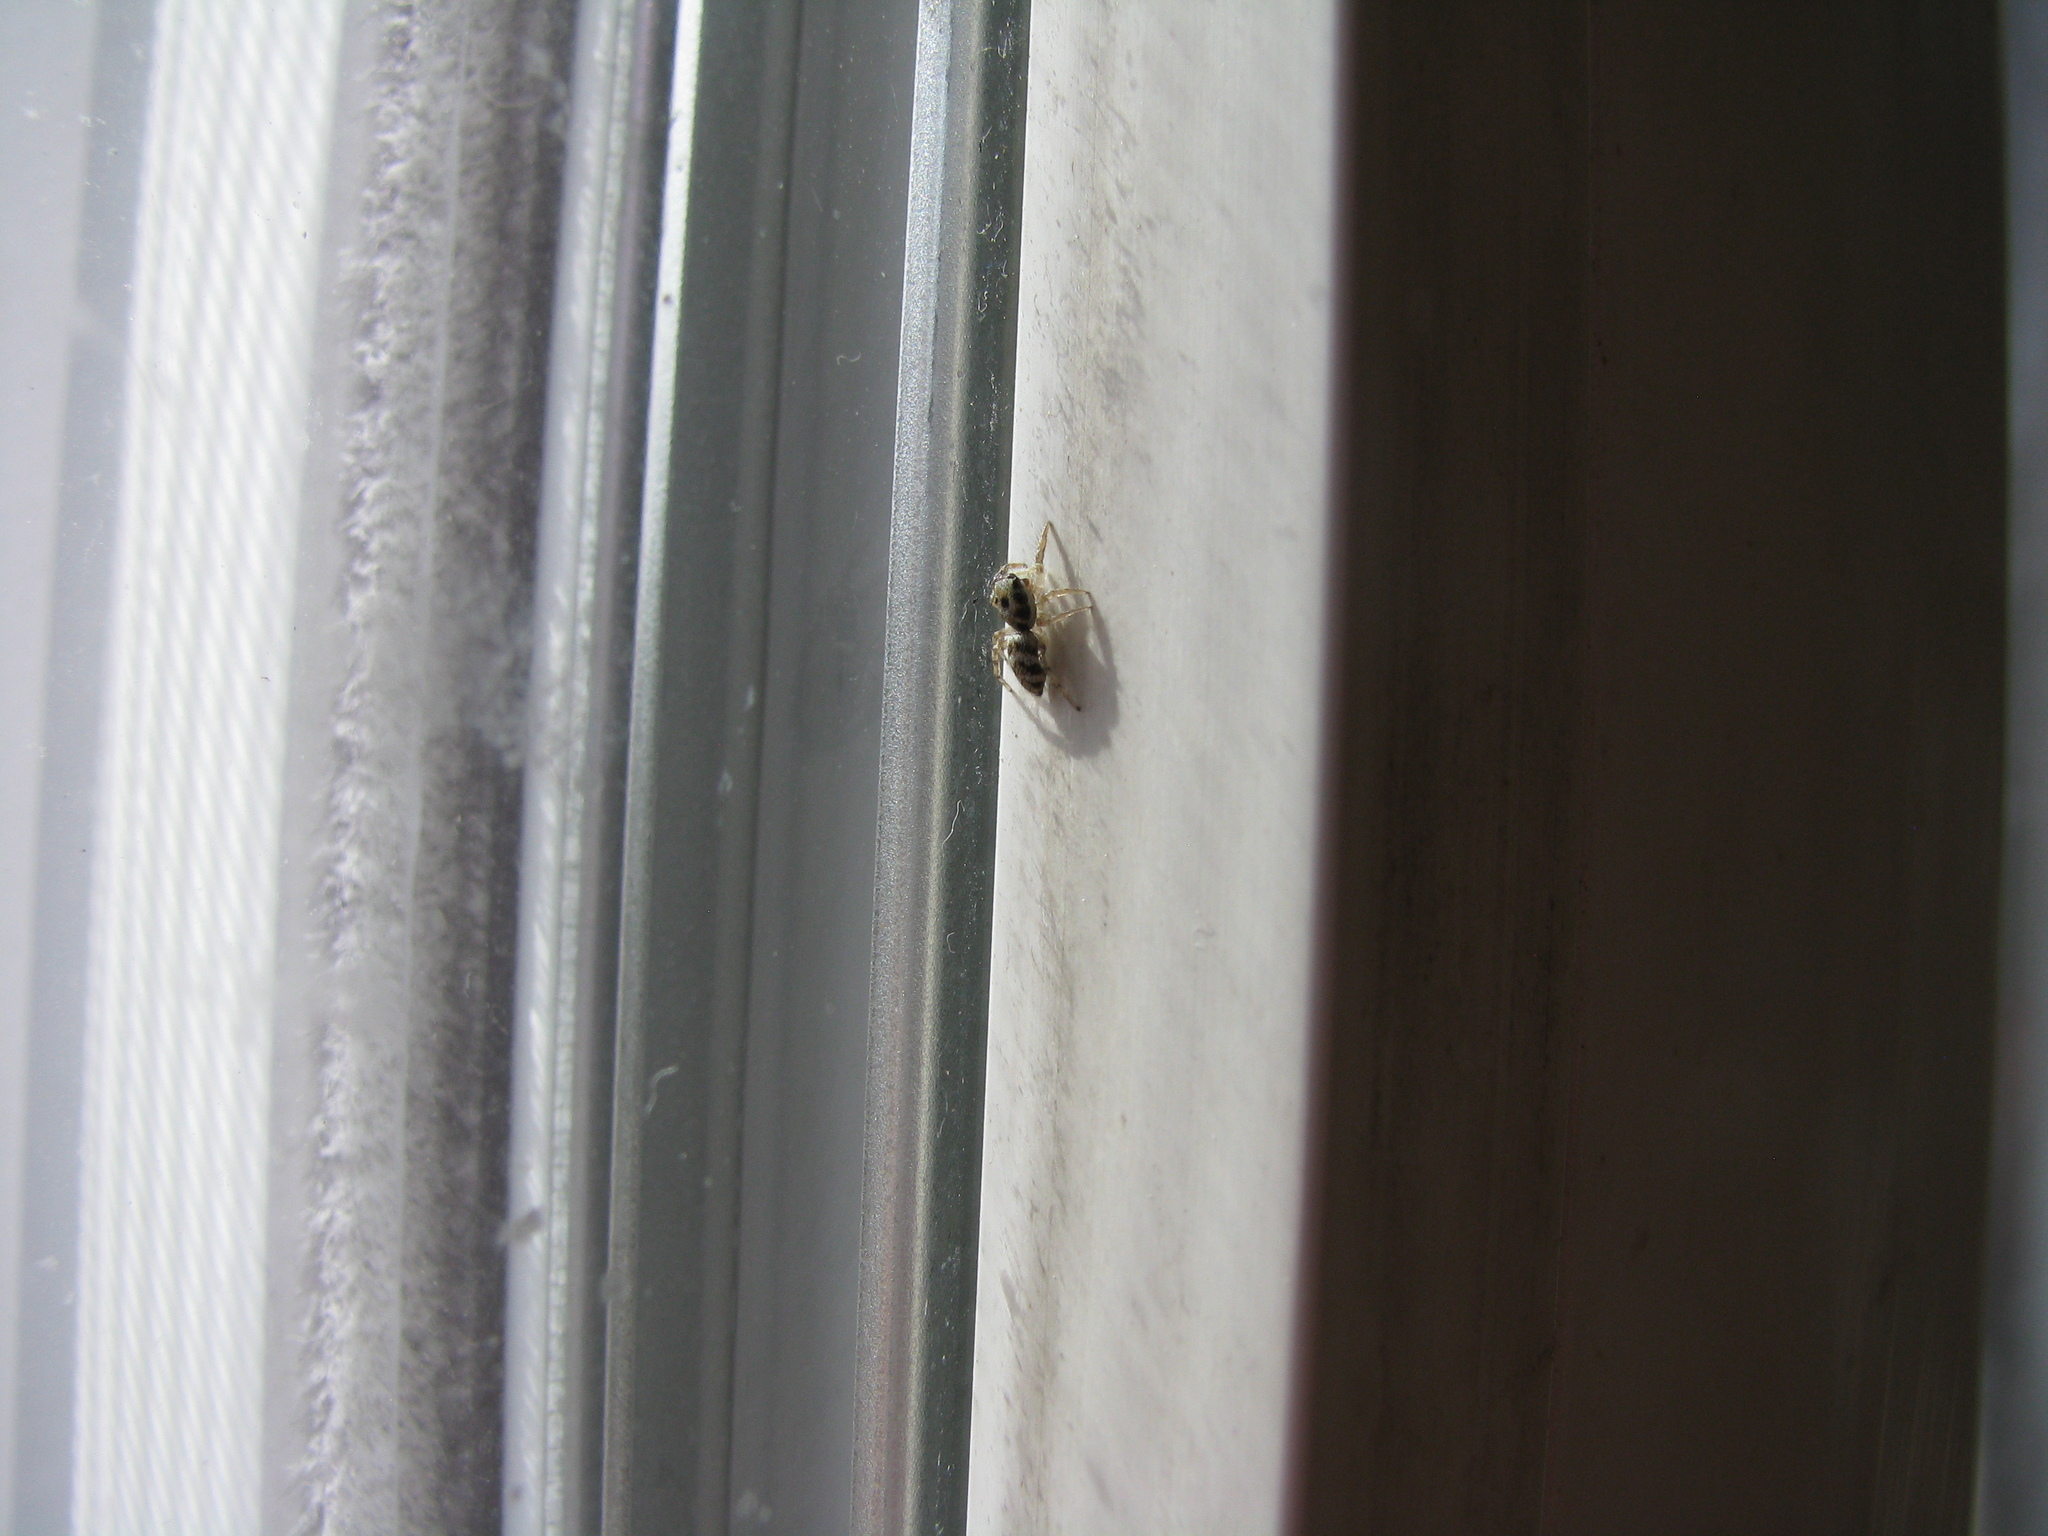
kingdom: Animalia
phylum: Arthropoda
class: Arachnida
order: Araneae
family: Salticidae
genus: Salticus
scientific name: Salticus scenicus
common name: Zebra jumper
